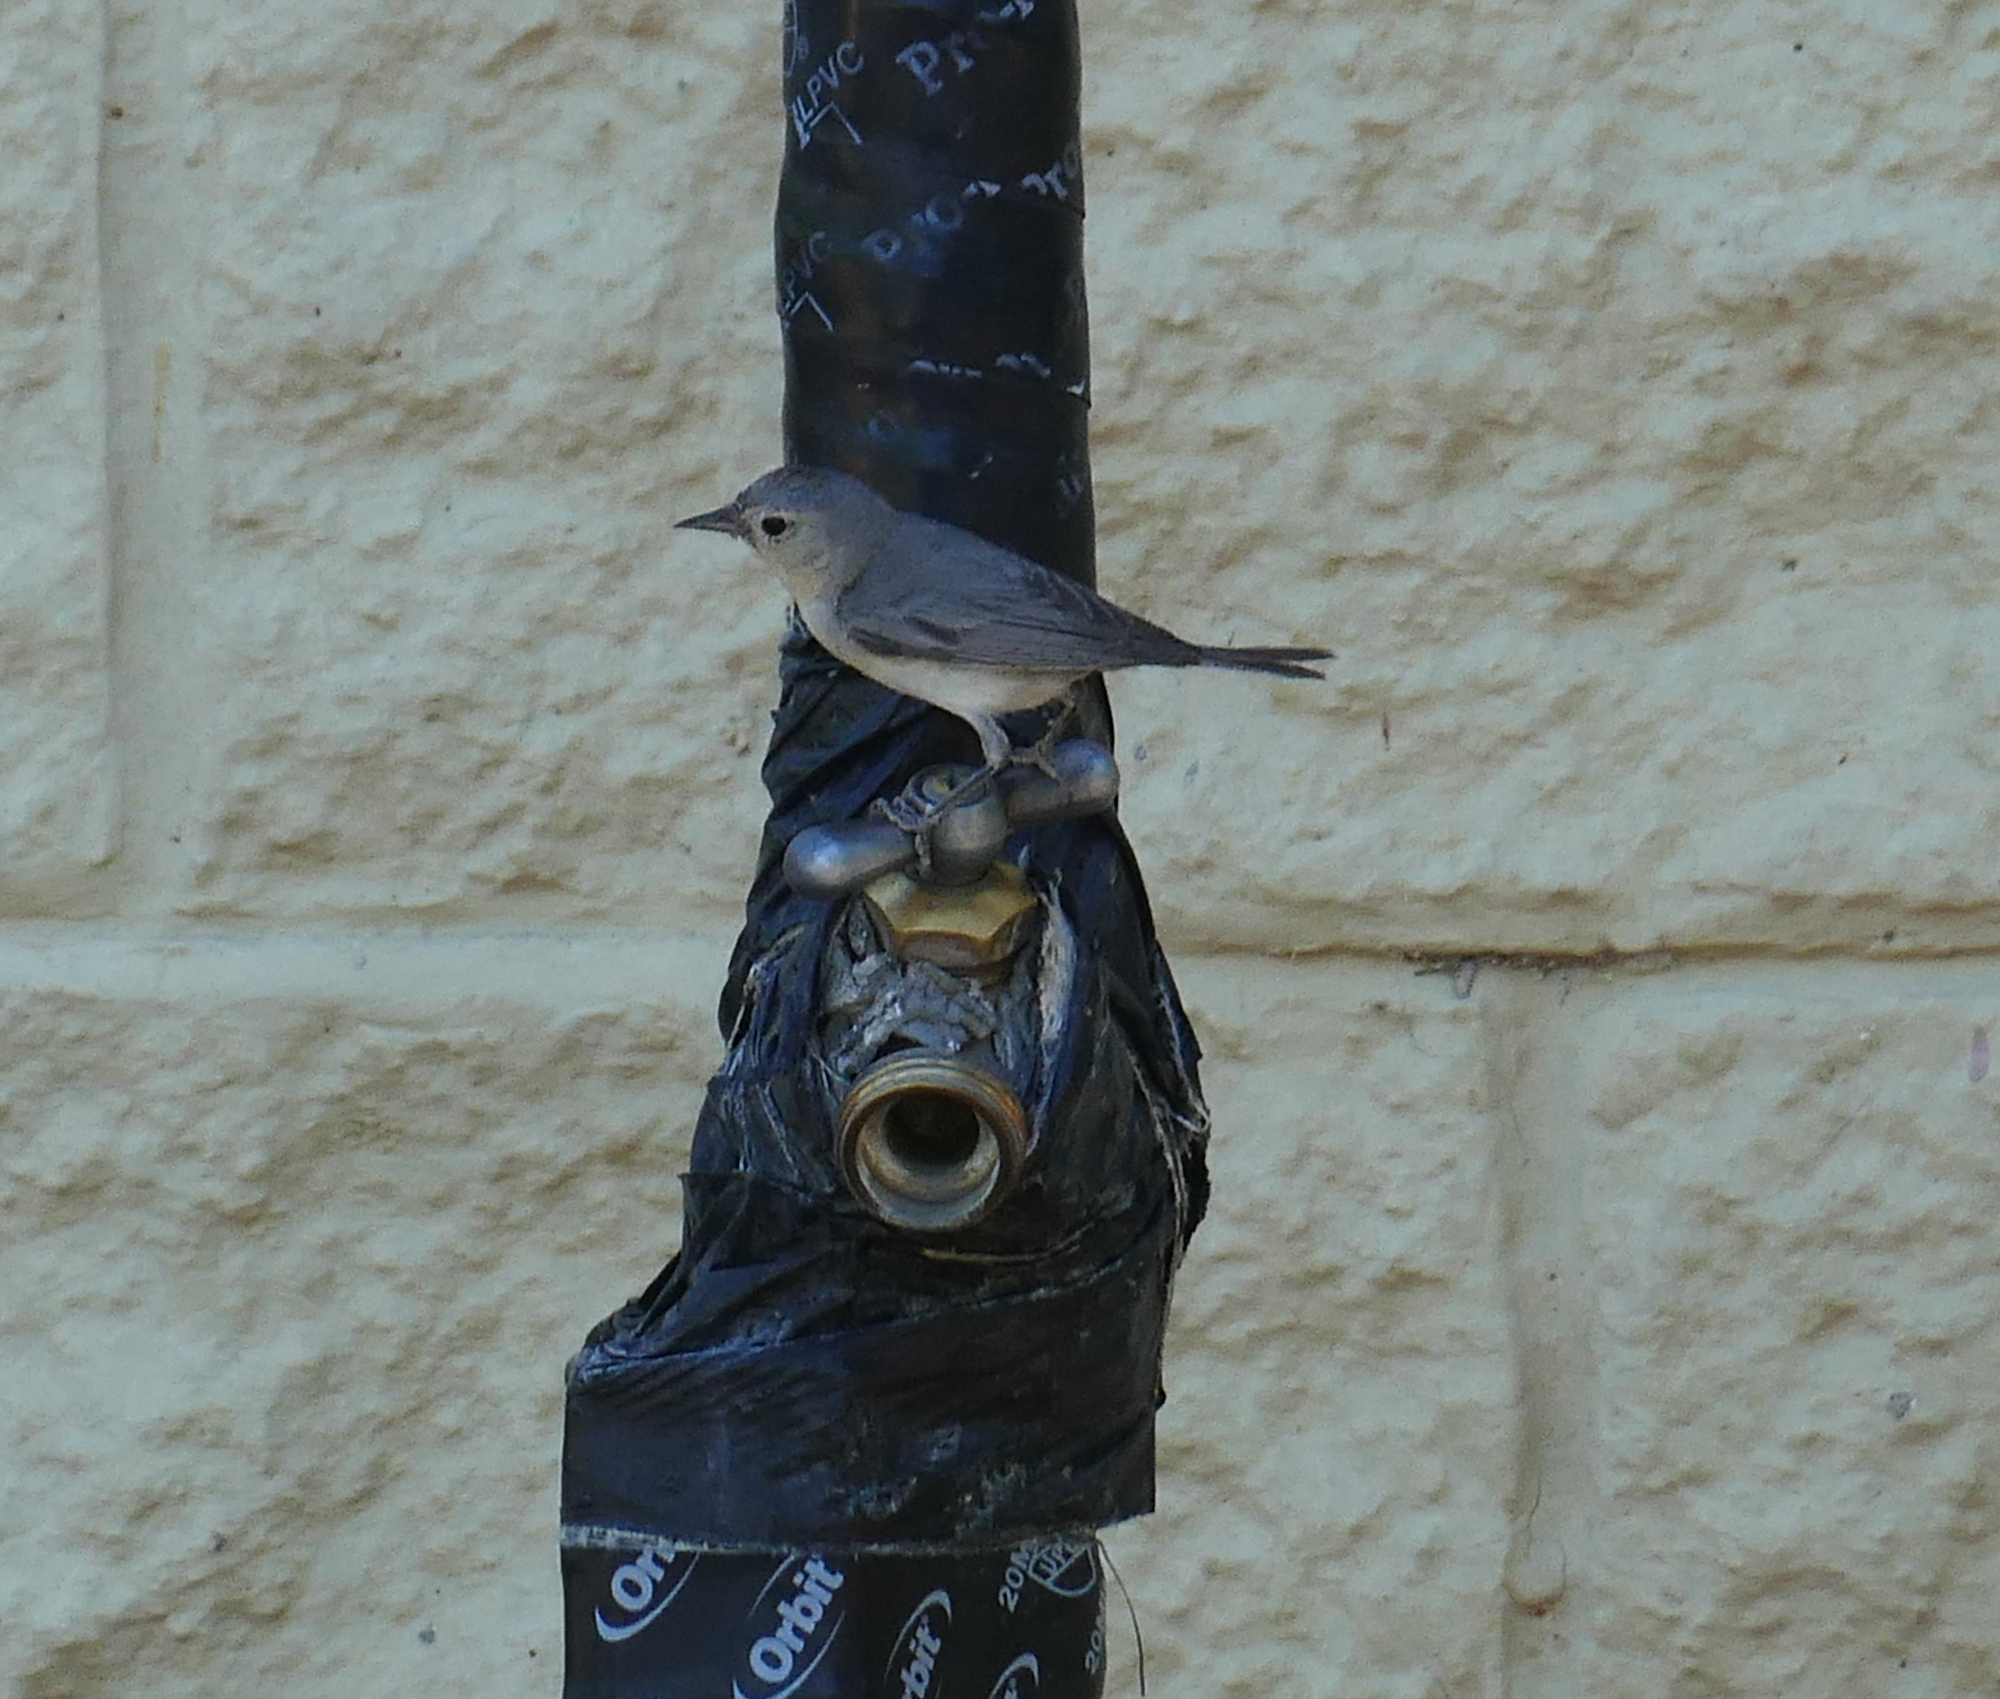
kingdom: Animalia
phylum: Chordata
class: Aves
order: Passeriformes
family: Parulidae
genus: Leiothlypis
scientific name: Leiothlypis luciae
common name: Lucy's warbler
